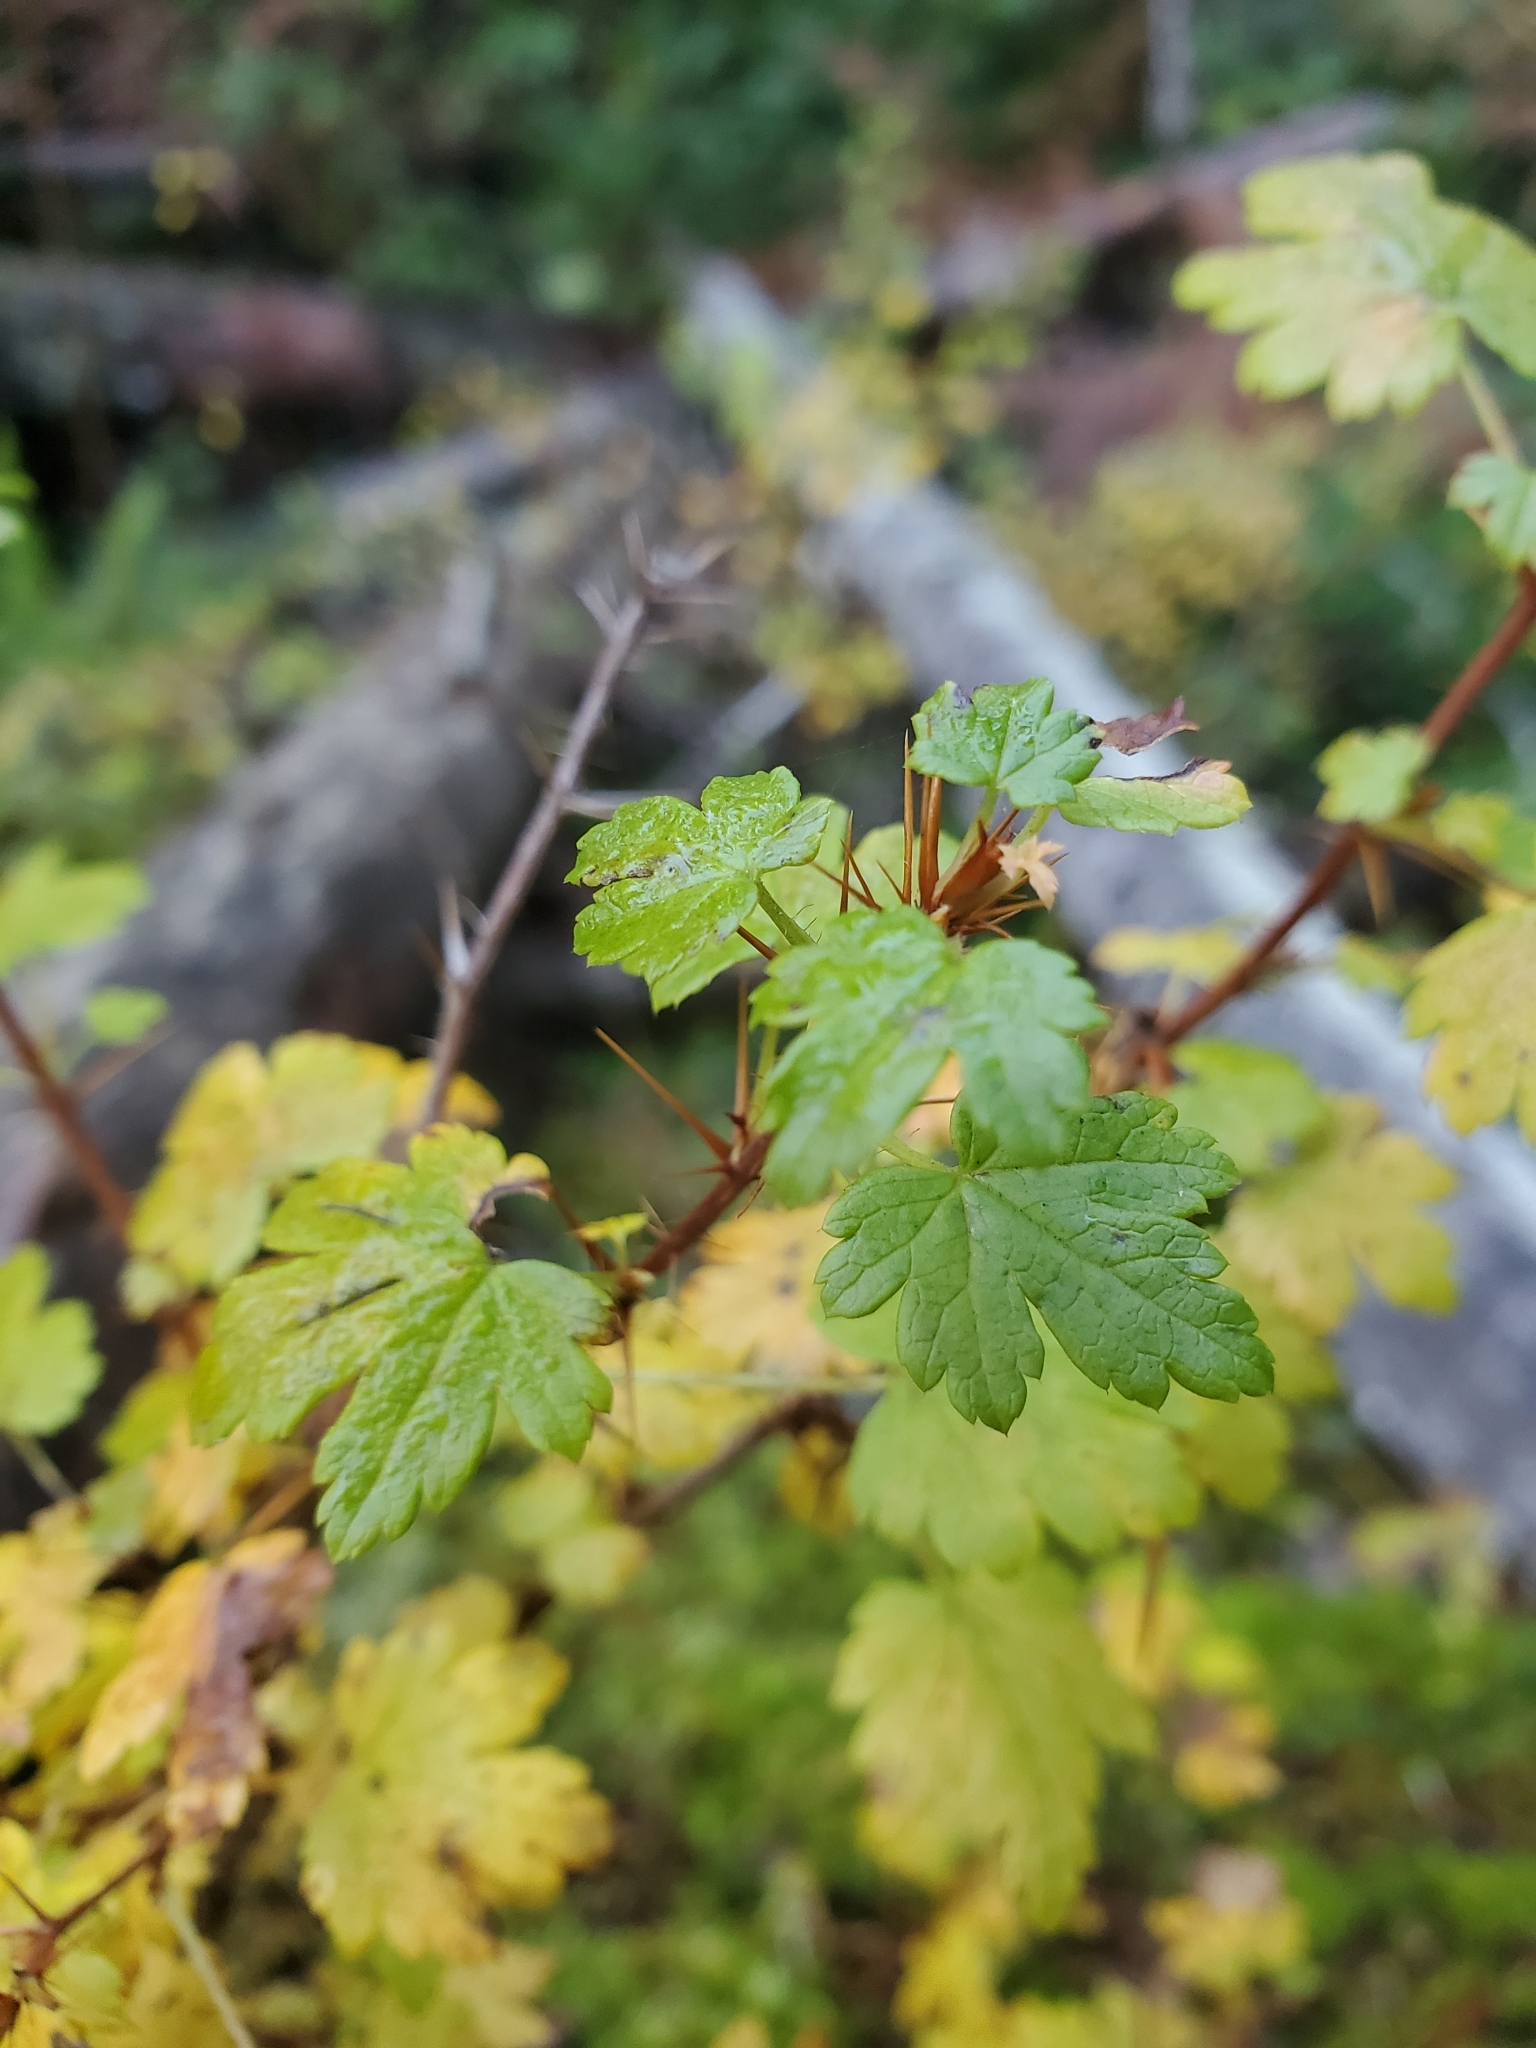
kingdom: Plantae
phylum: Tracheophyta
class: Magnoliopsida
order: Saxifragales
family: Grossulariaceae
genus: Ribes
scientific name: Ribes lacustre
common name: Black gooseberry
